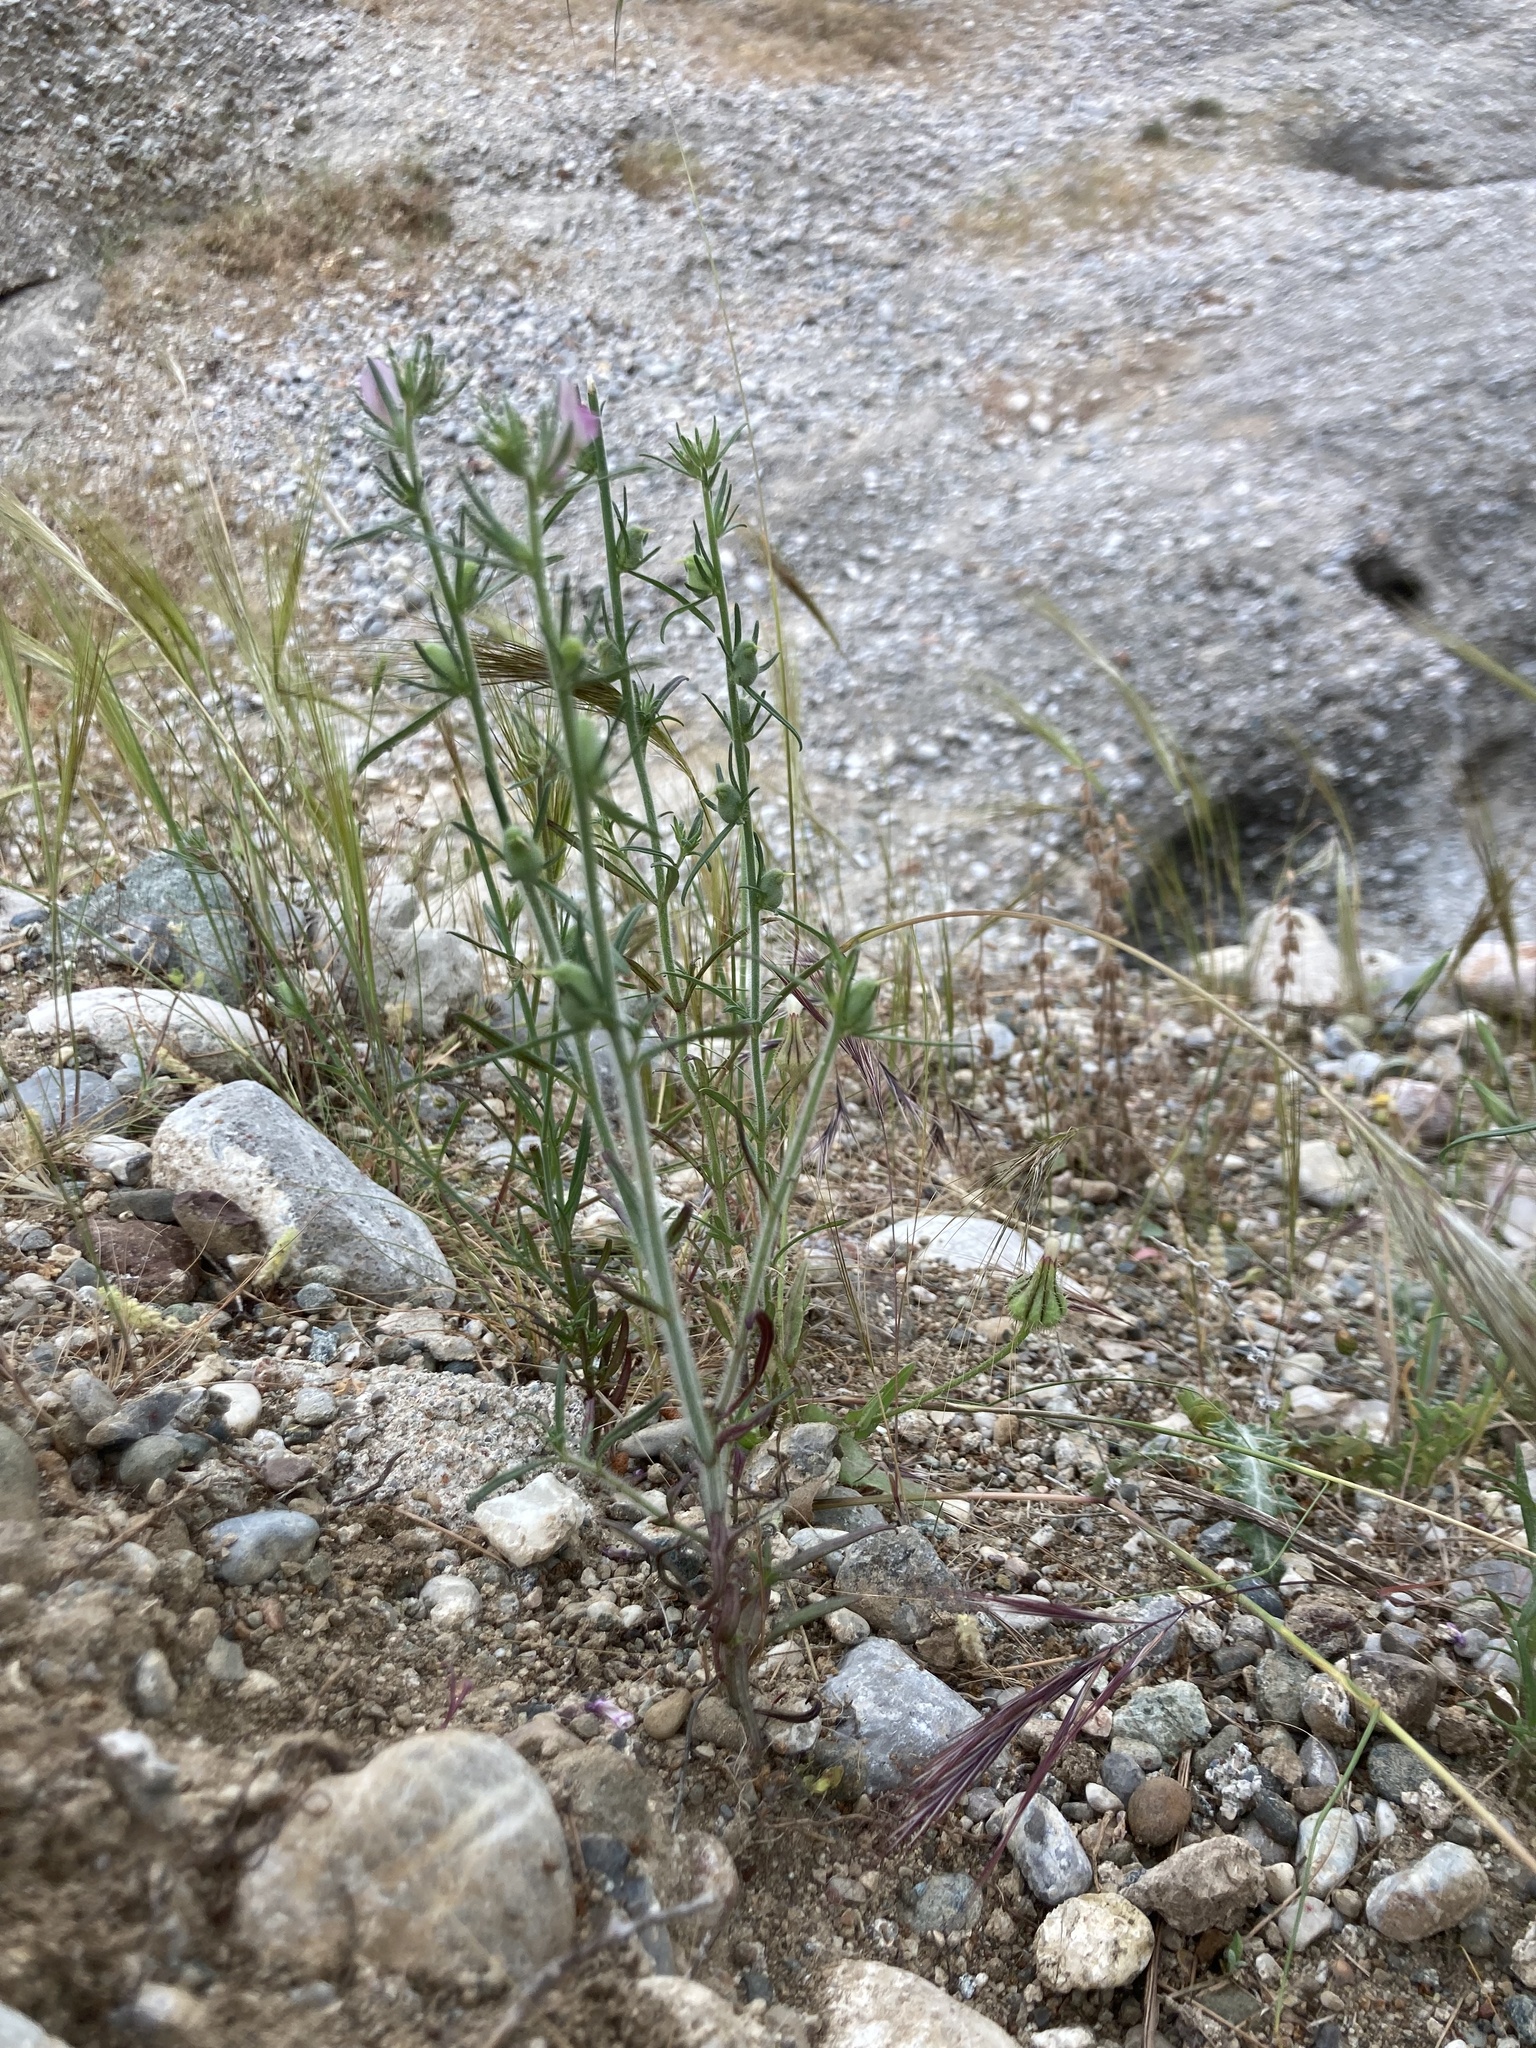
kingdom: Plantae
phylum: Tracheophyta
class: Magnoliopsida
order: Lamiales
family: Plantaginaceae
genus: Misopates
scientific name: Misopates orontium
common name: Weasel's-snout
